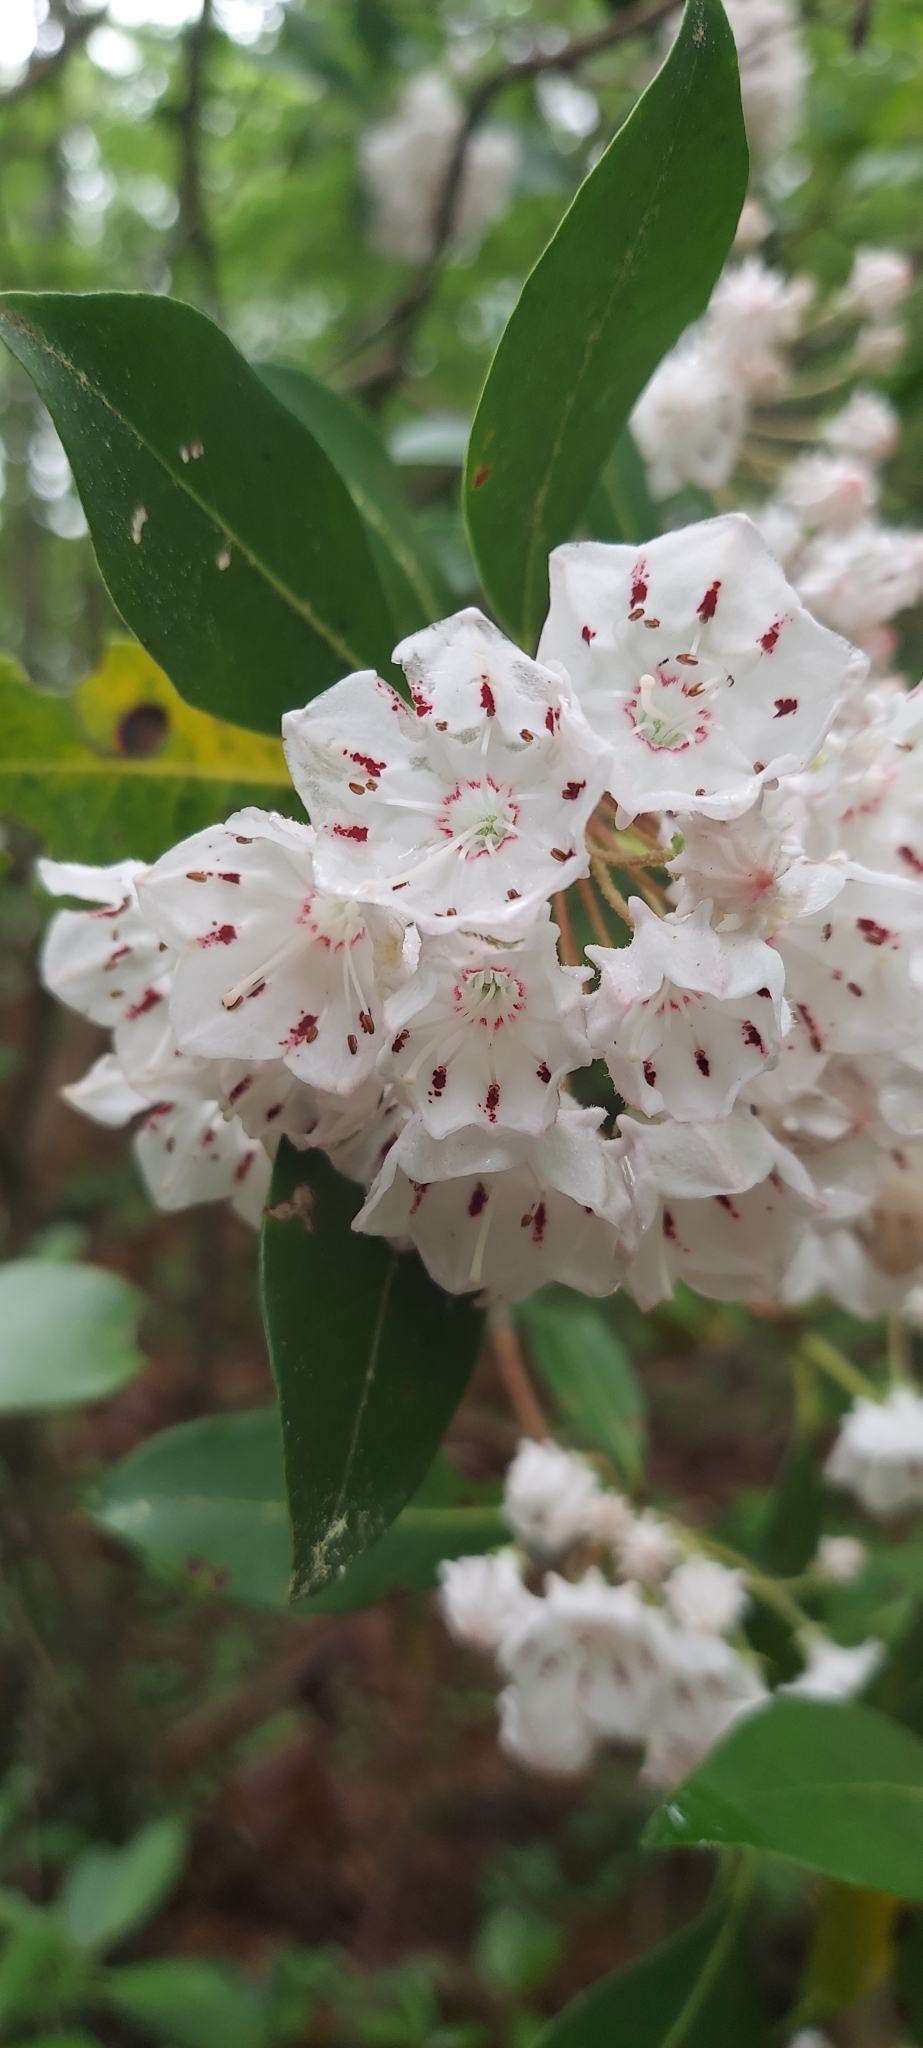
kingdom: Plantae
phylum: Tracheophyta
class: Magnoliopsida
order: Ericales
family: Ericaceae
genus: Kalmia
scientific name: Kalmia latifolia
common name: Mountain-laurel
